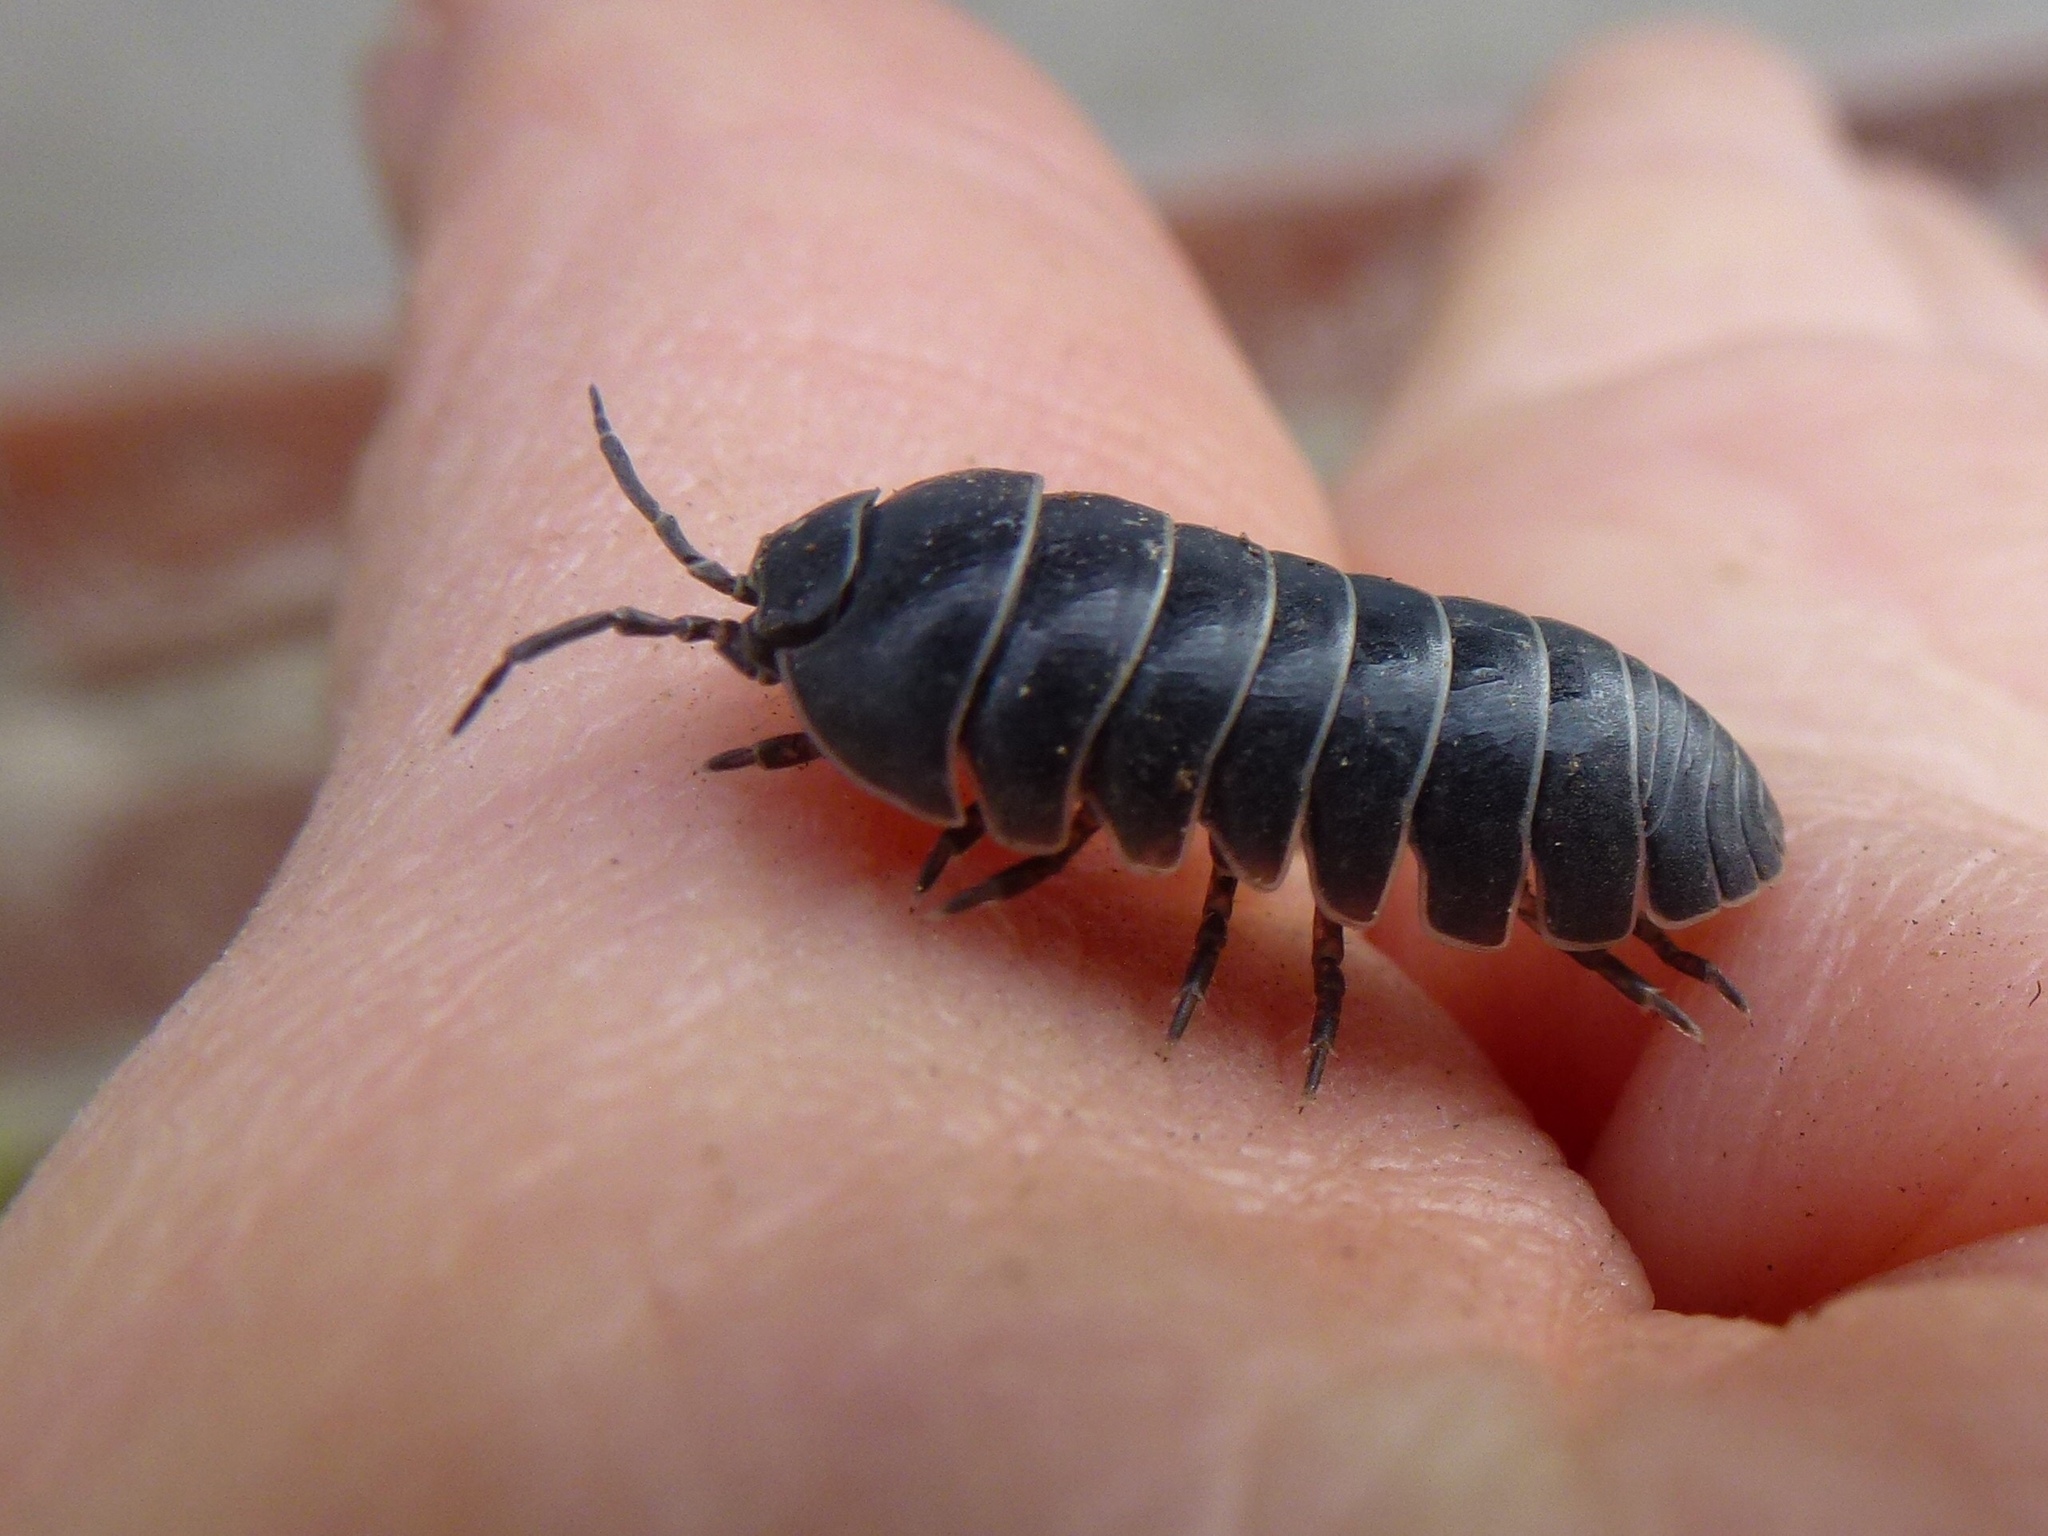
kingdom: Animalia
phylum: Arthropoda
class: Malacostraca
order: Isopoda
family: Armadillidiidae
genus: Armadillidium
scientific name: Armadillidium vulgare
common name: Common pill woodlouse
